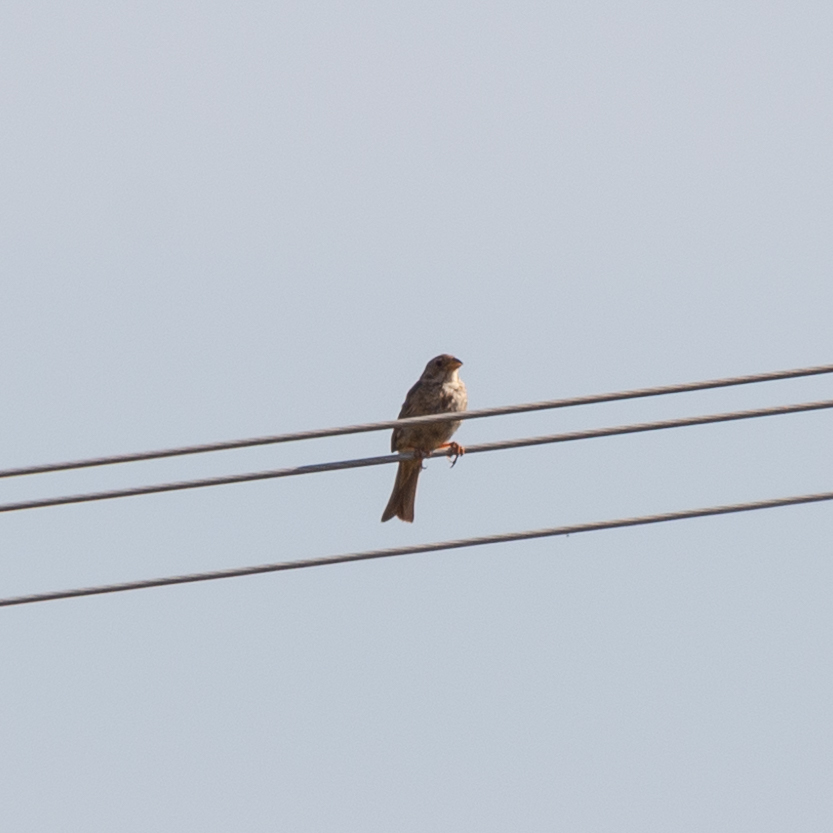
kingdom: Animalia
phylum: Chordata
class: Aves
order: Passeriformes
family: Emberizidae
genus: Emberiza
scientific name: Emberiza calandra
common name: Corn bunting
